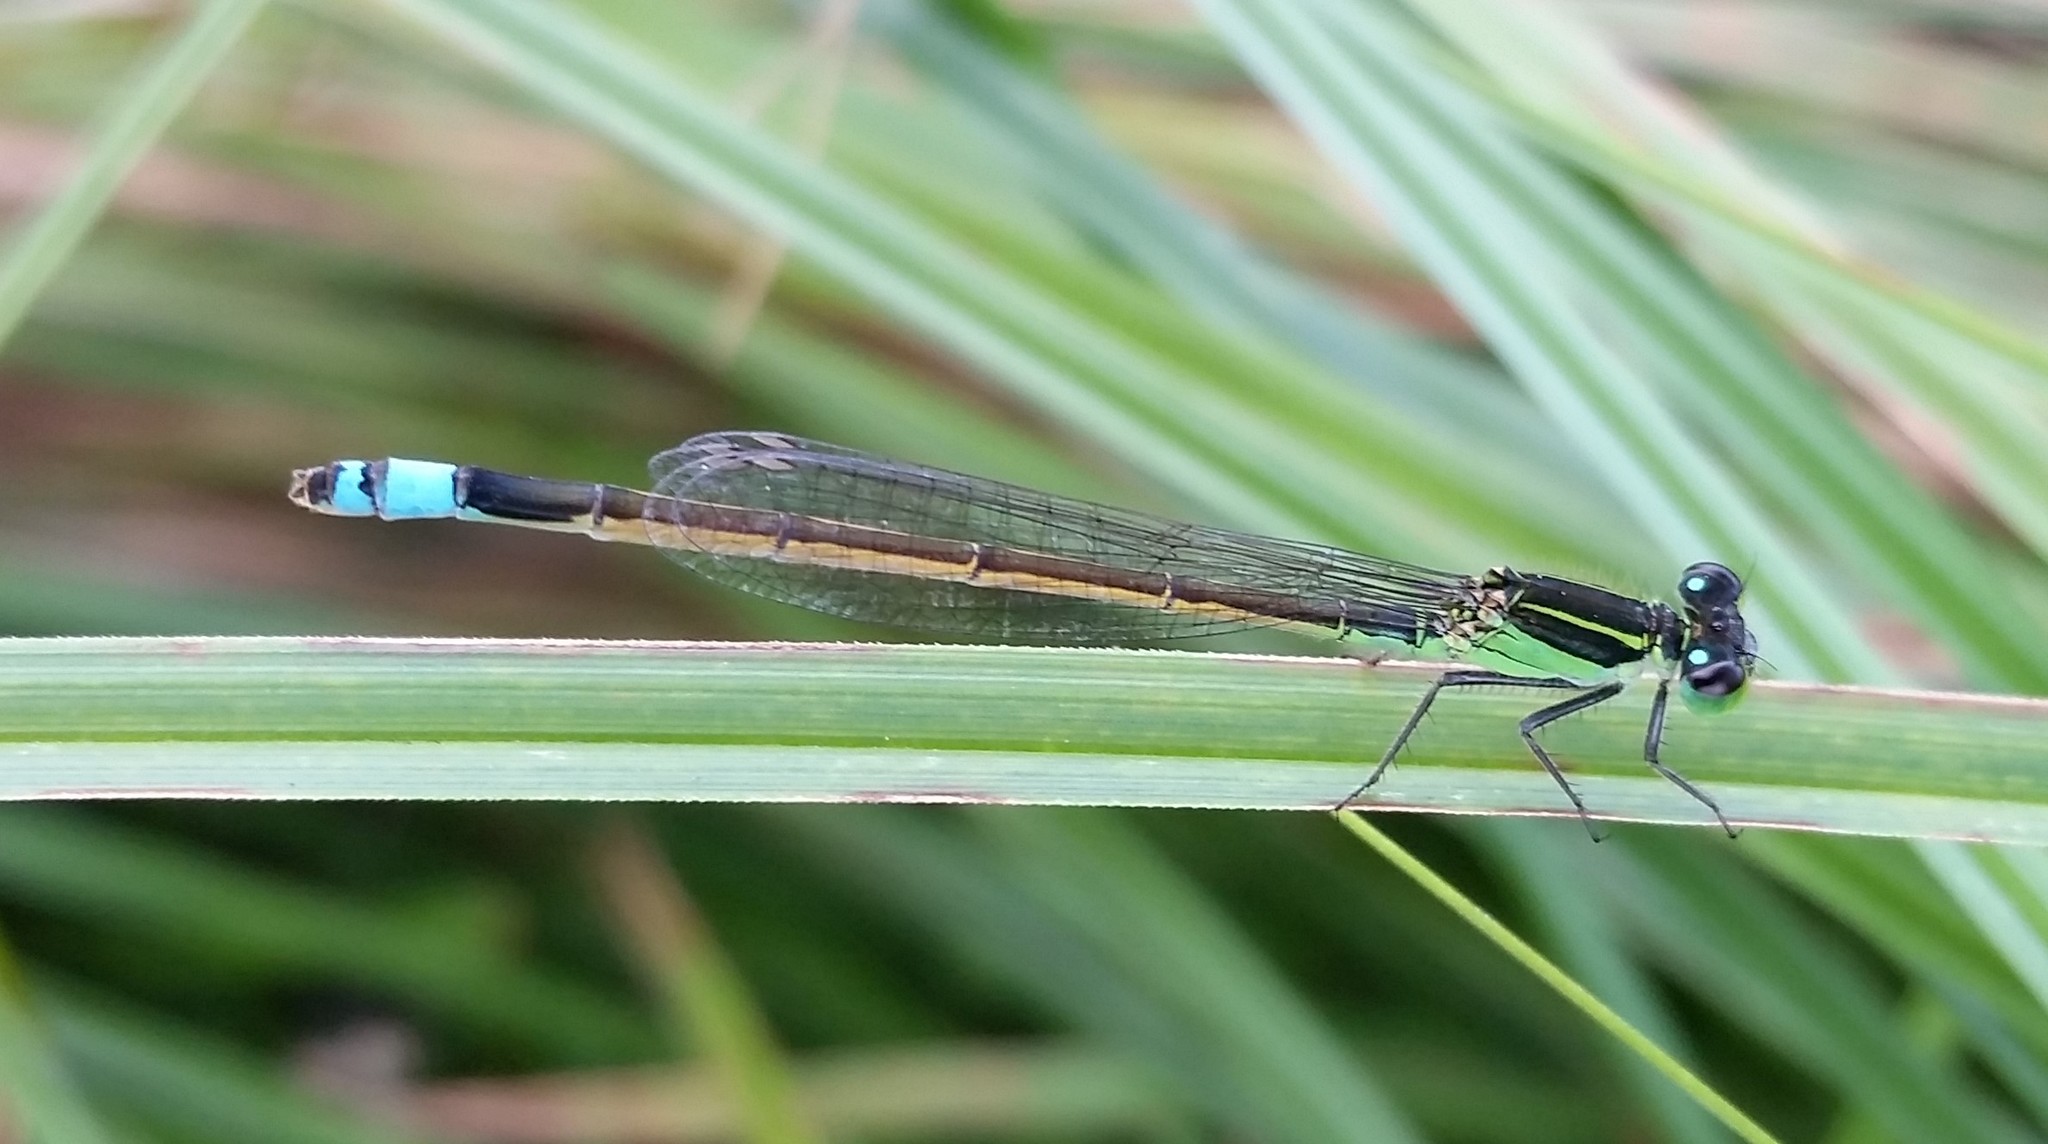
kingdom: Animalia
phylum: Arthropoda
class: Insecta
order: Odonata
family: Coenagrionidae
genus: Ischnura
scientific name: Ischnura ramburii
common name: Rambur's forktail
